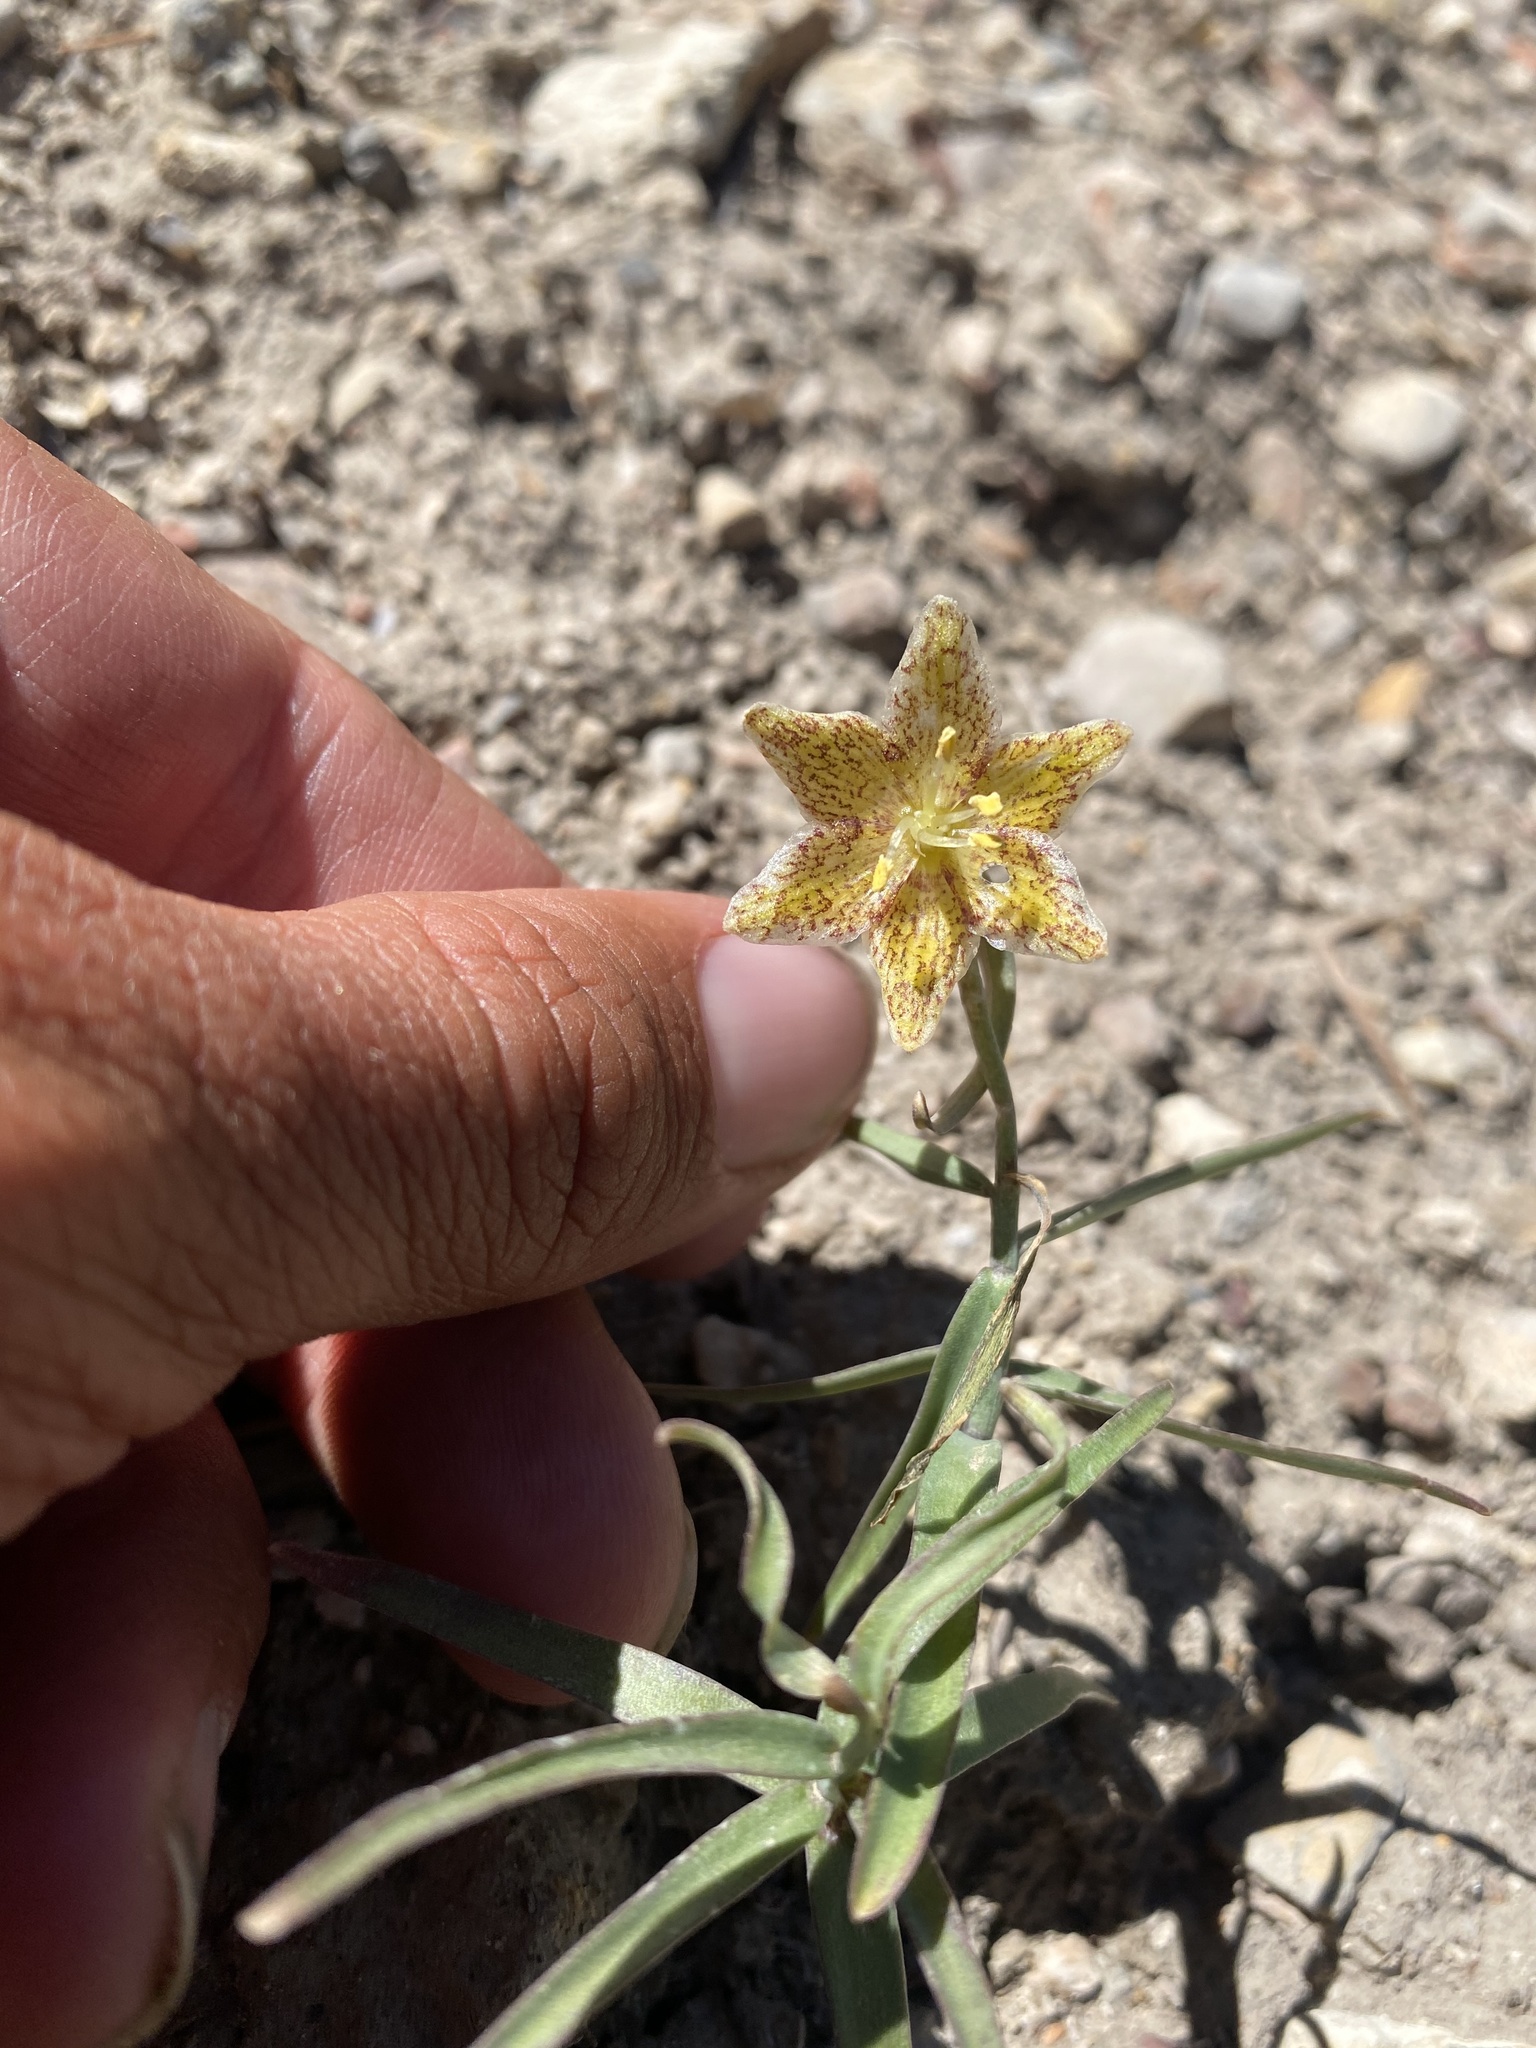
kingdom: Plantae
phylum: Tracheophyta
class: Liliopsida
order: Liliales
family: Liliaceae
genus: Fritillaria
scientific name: Fritillaria atropurpurea
